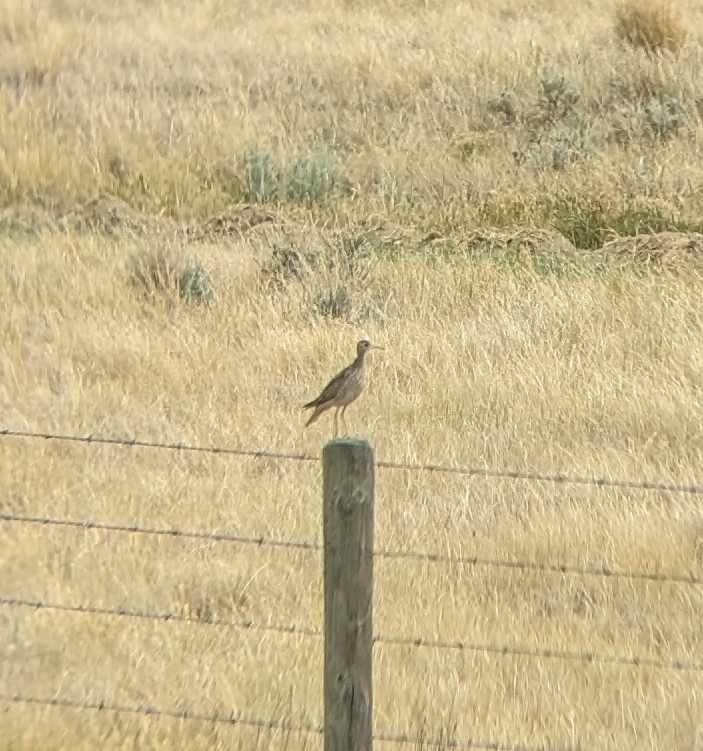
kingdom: Animalia
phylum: Chordata
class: Aves
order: Charadriiformes
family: Scolopacidae
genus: Bartramia
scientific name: Bartramia longicauda
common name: Upland sandpiper
